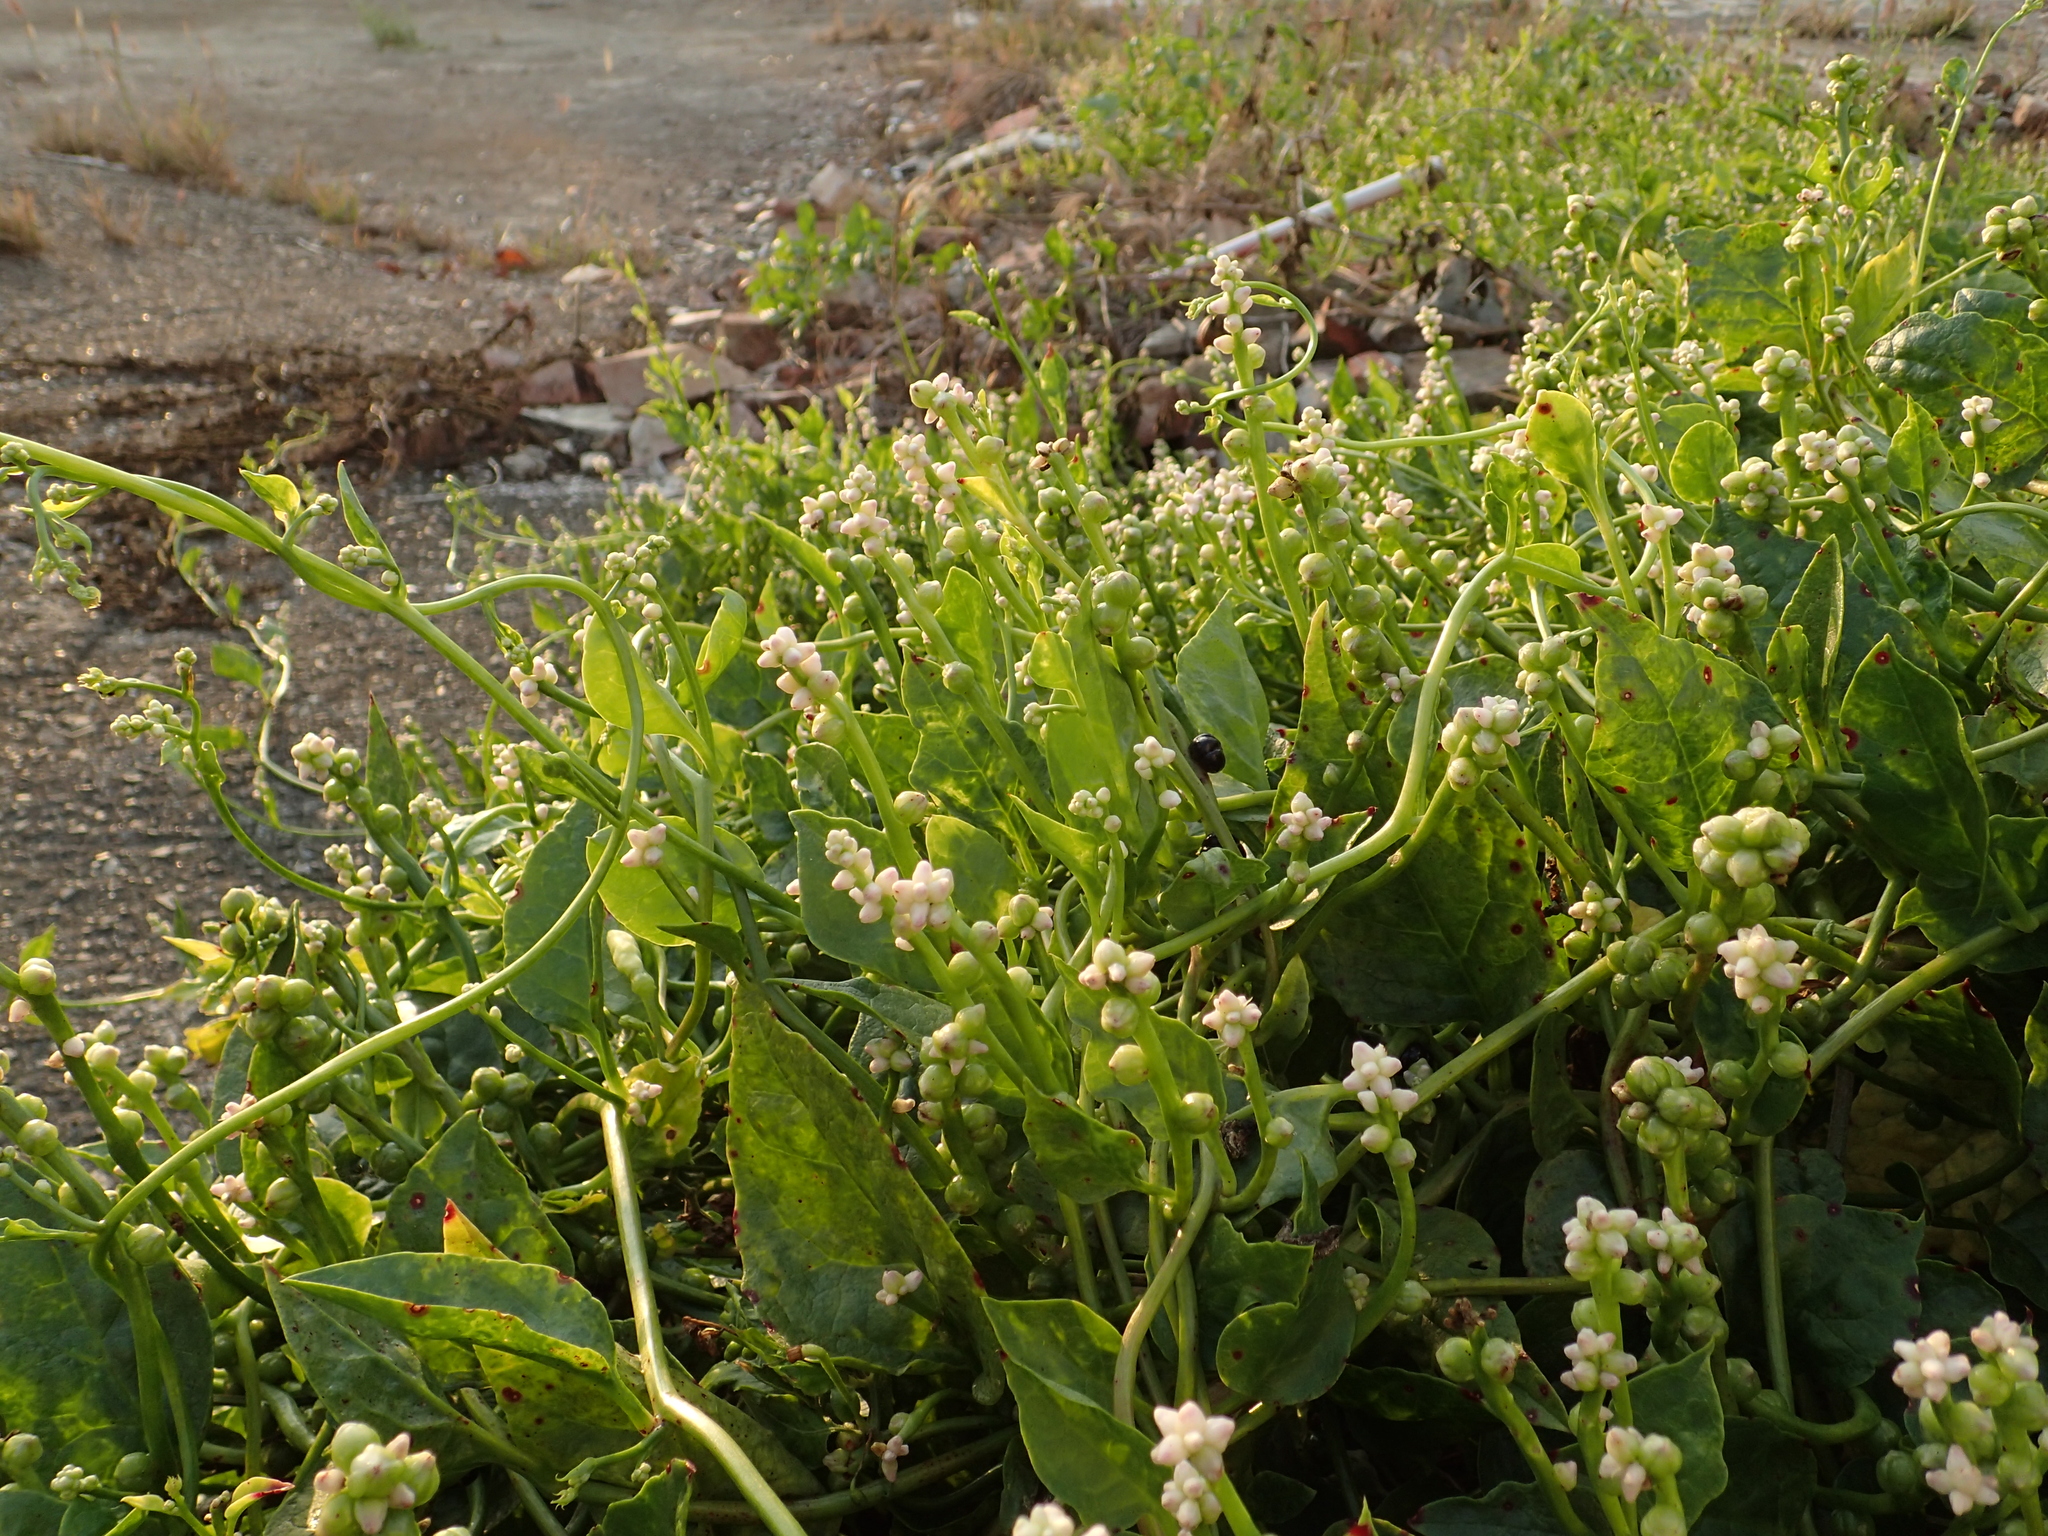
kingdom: Plantae
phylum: Tracheophyta
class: Magnoliopsida
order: Caryophyllales
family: Basellaceae
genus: Basella
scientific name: Basella alba
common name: Indian spinach
